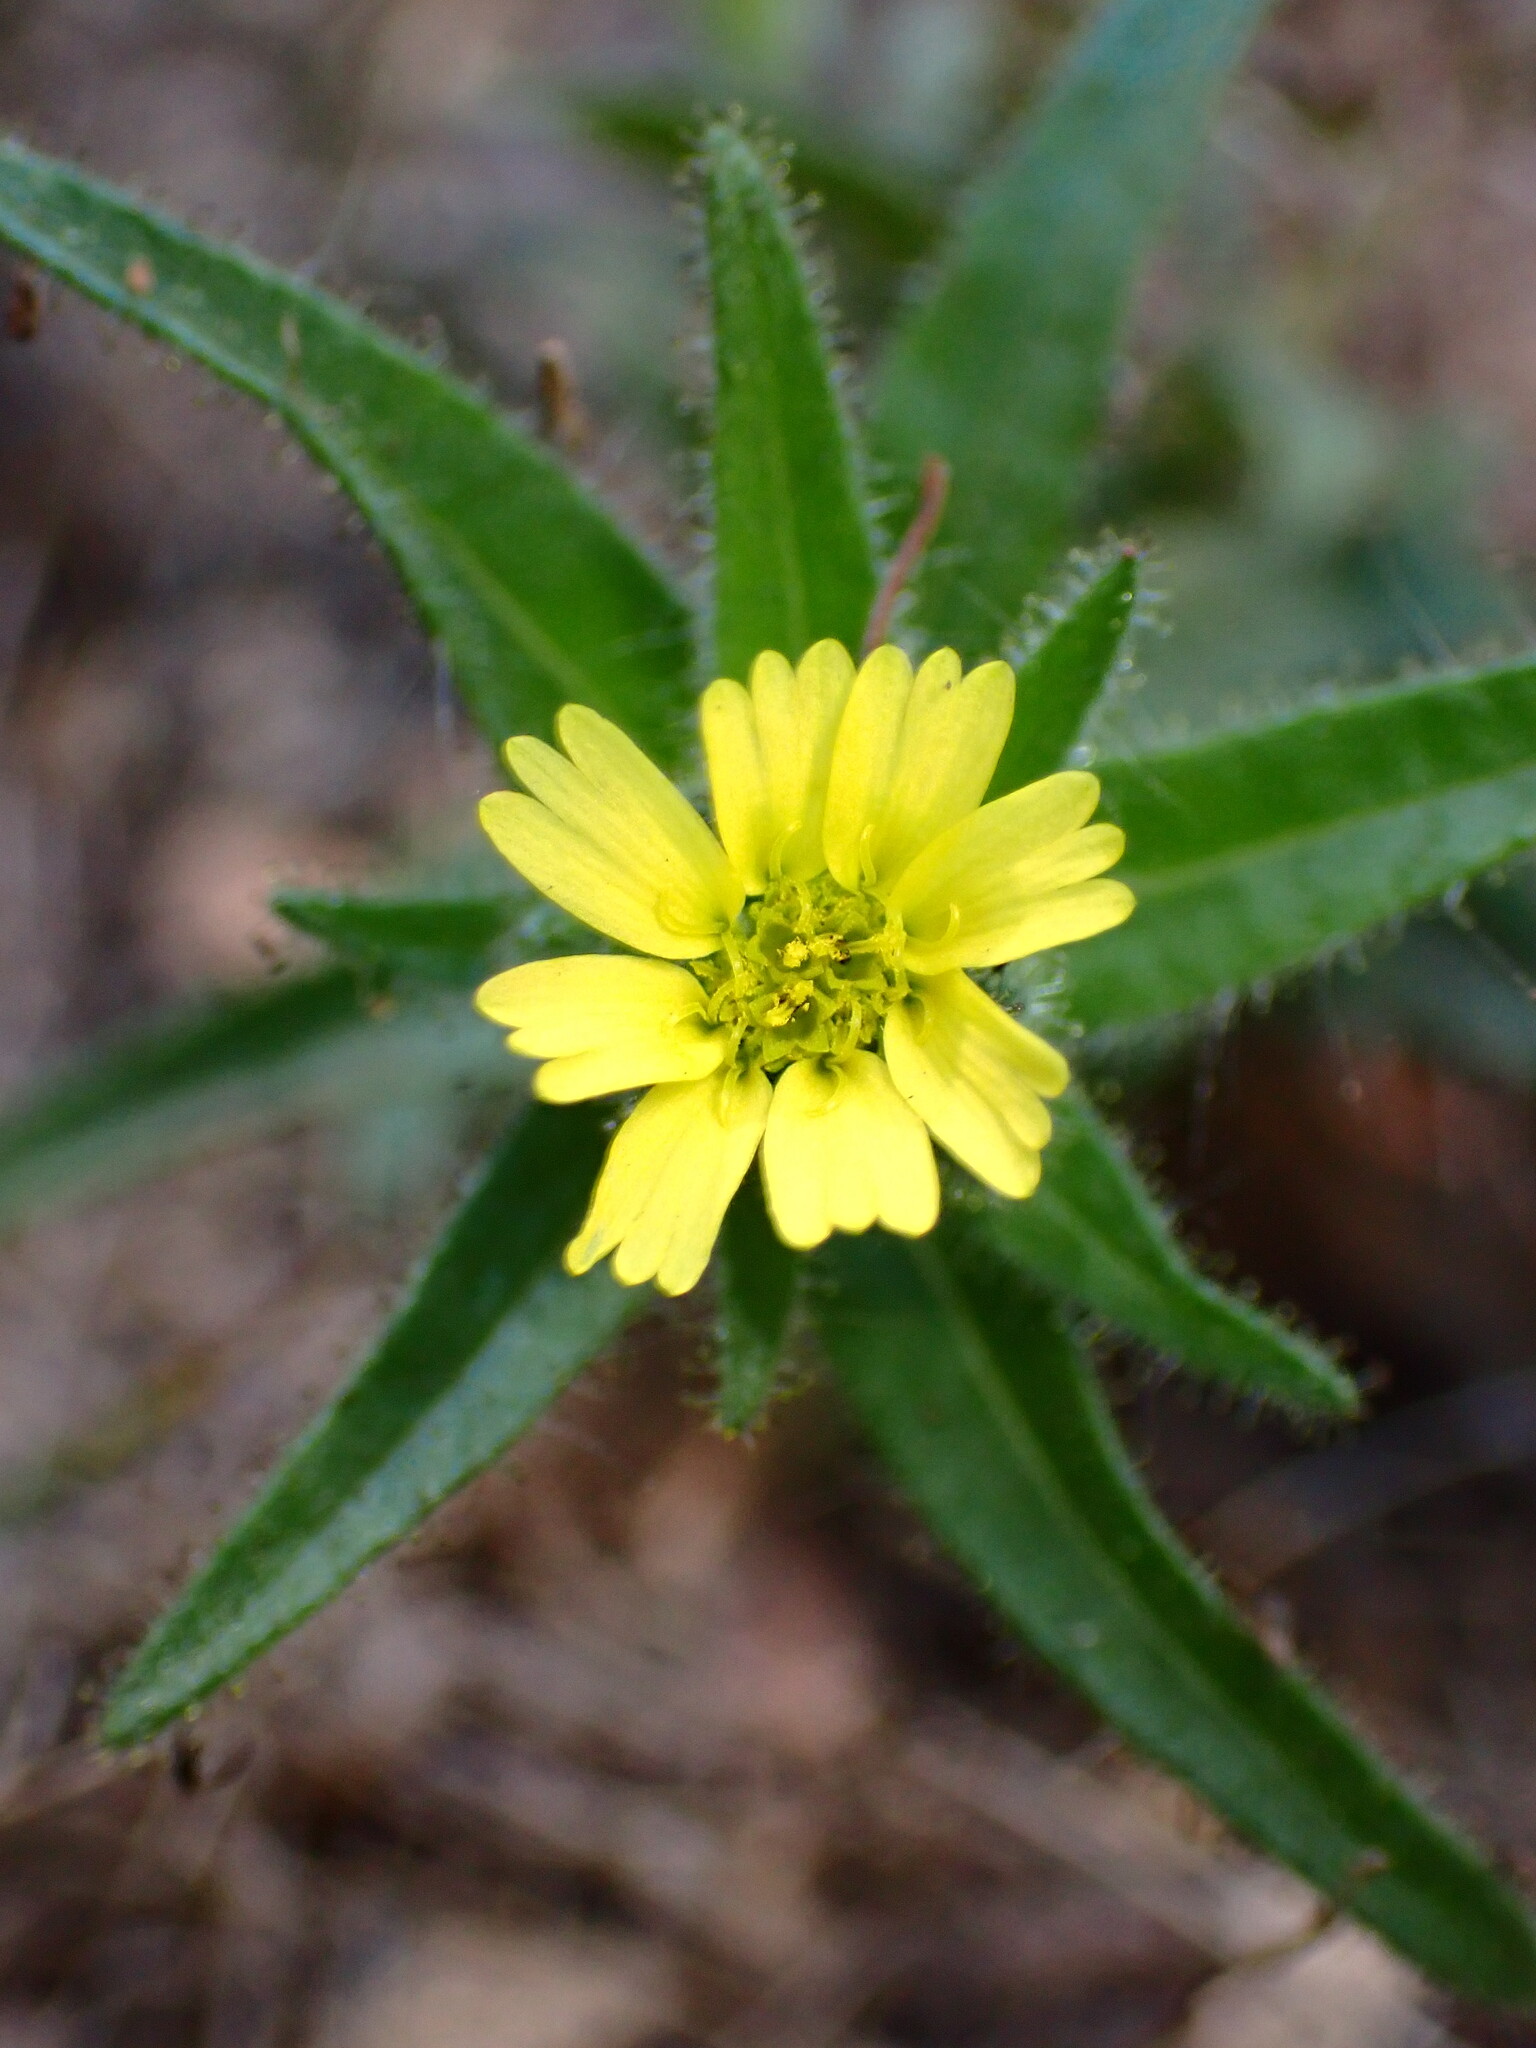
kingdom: Plantae
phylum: Tracheophyta
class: Magnoliopsida
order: Asterales
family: Asteraceae
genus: Madia
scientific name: Madia sativa
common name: Coast tarweed
